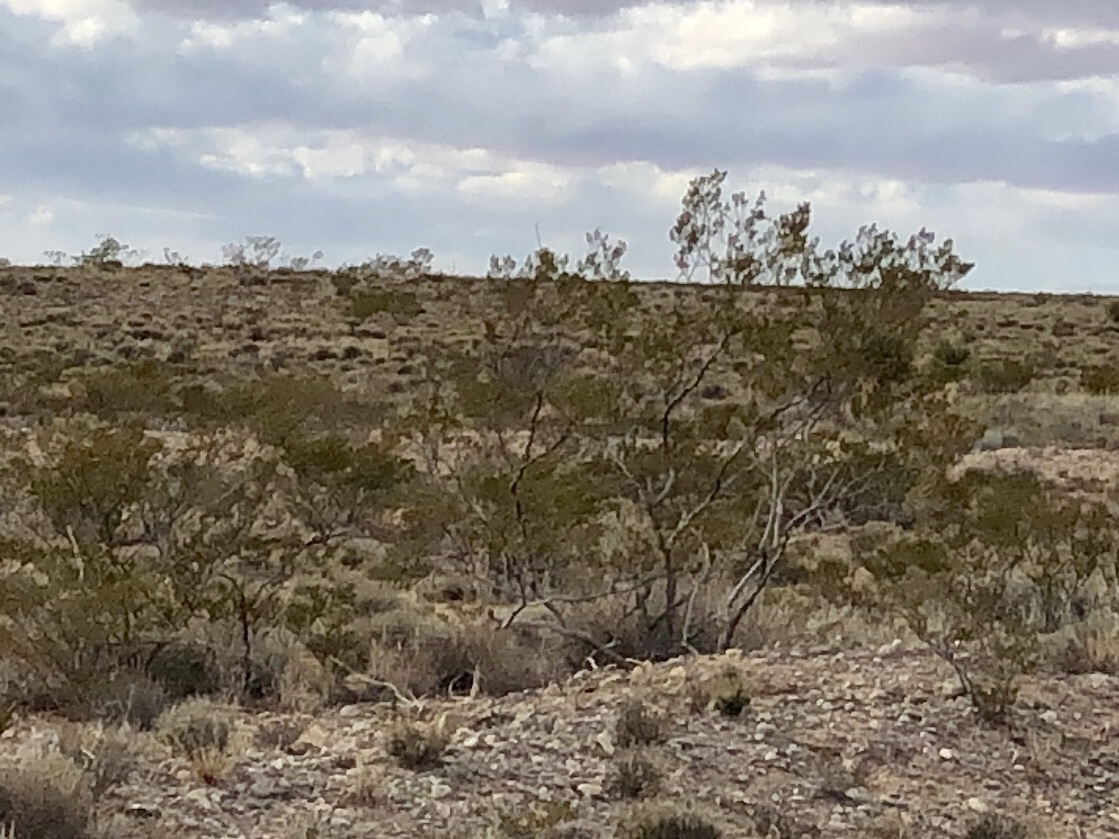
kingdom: Plantae
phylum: Tracheophyta
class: Magnoliopsida
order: Zygophyllales
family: Zygophyllaceae
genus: Larrea
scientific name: Larrea tridentata
